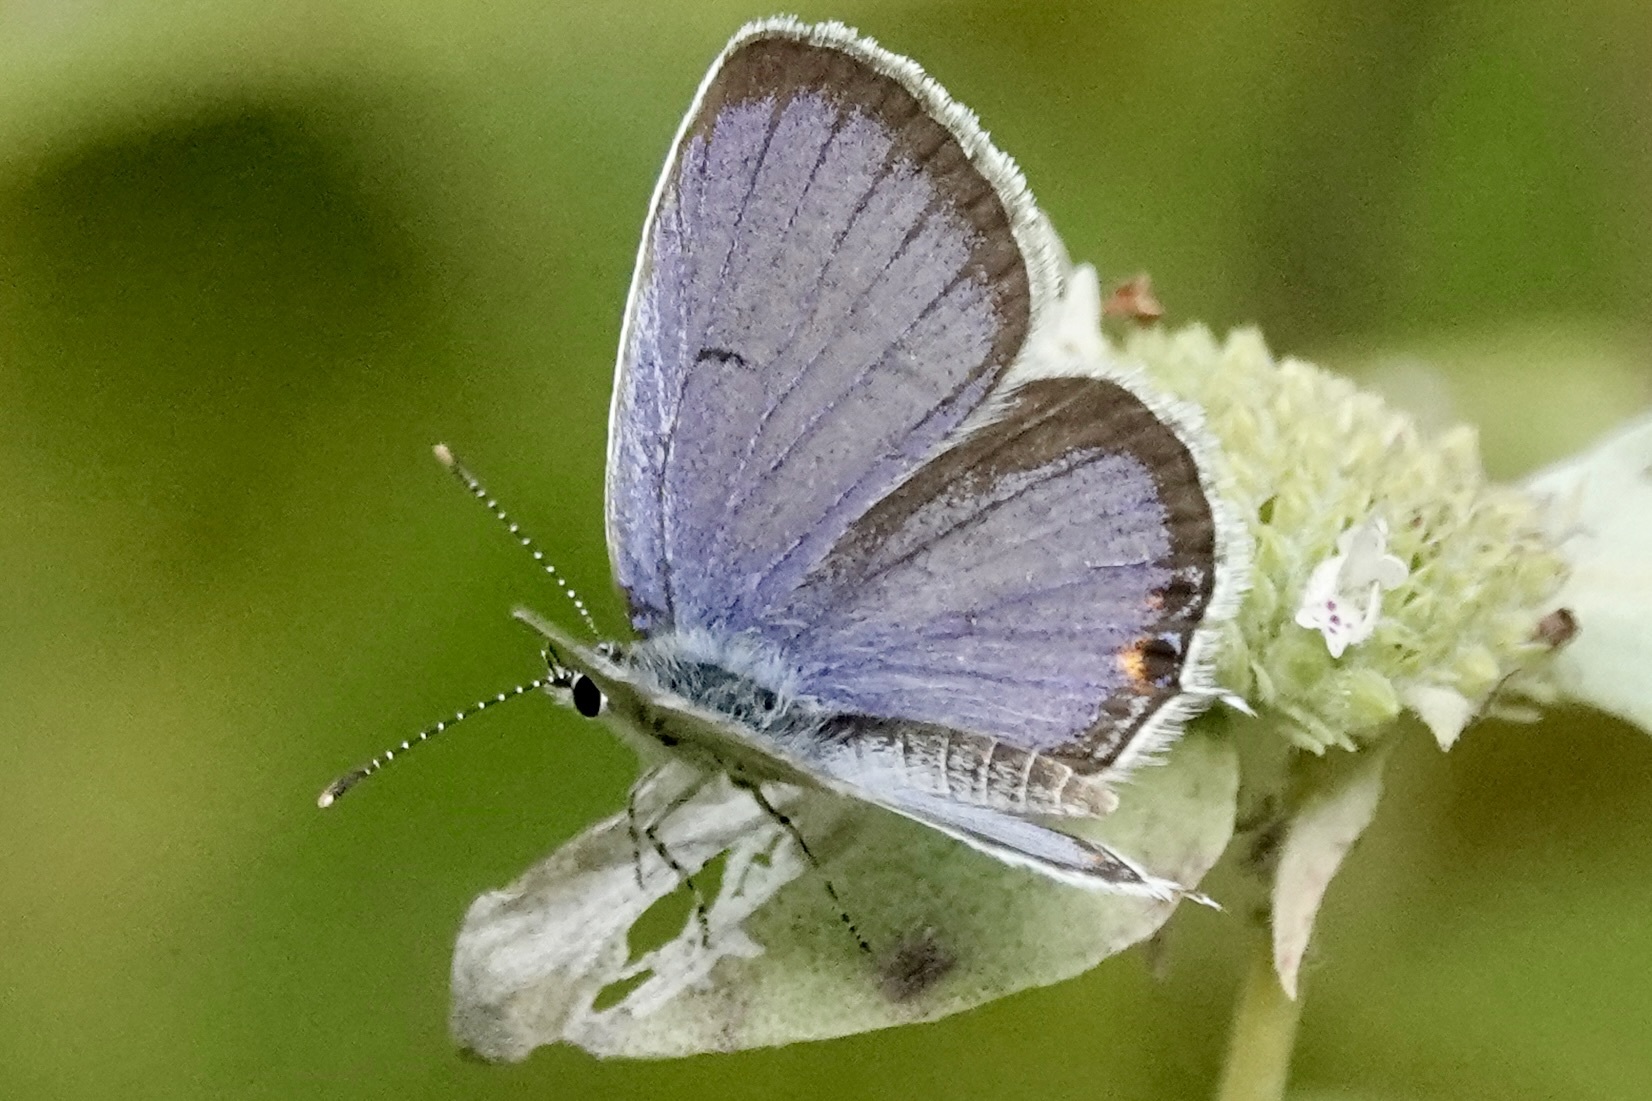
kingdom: Animalia
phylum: Arthropoda
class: Insecta
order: Lepidoptera
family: Lycaenidae
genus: Elkalyce
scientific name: Elkalyce comyntas
